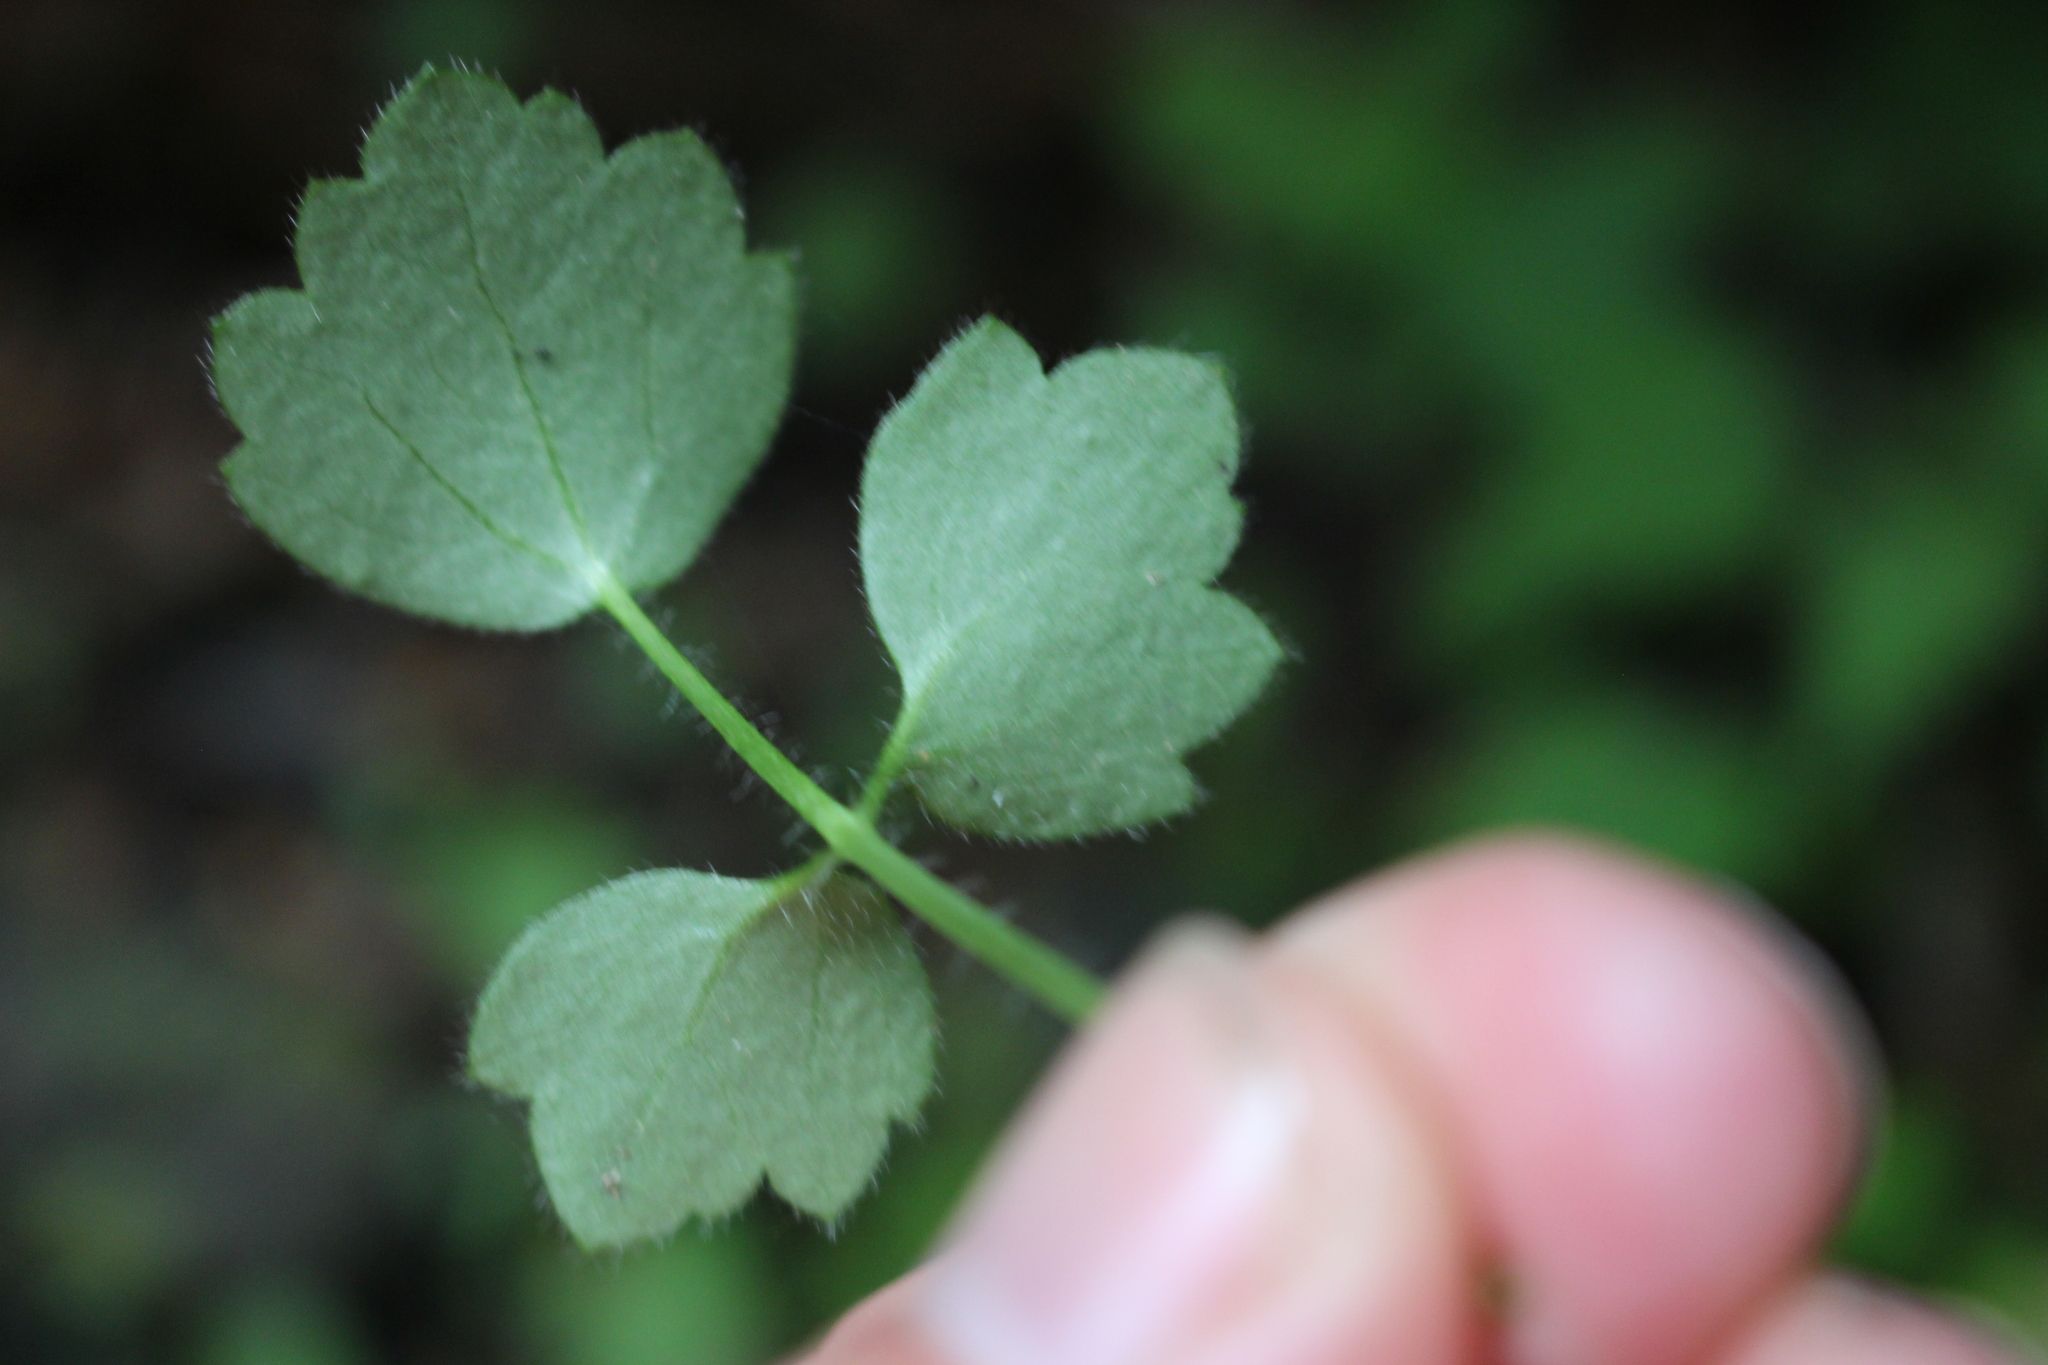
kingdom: Plantae
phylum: Tracheophyta
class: Magnoliopsida
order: Ranunculales
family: Ranunculaceae
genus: Ranunculus
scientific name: Ranunculus reflexus
